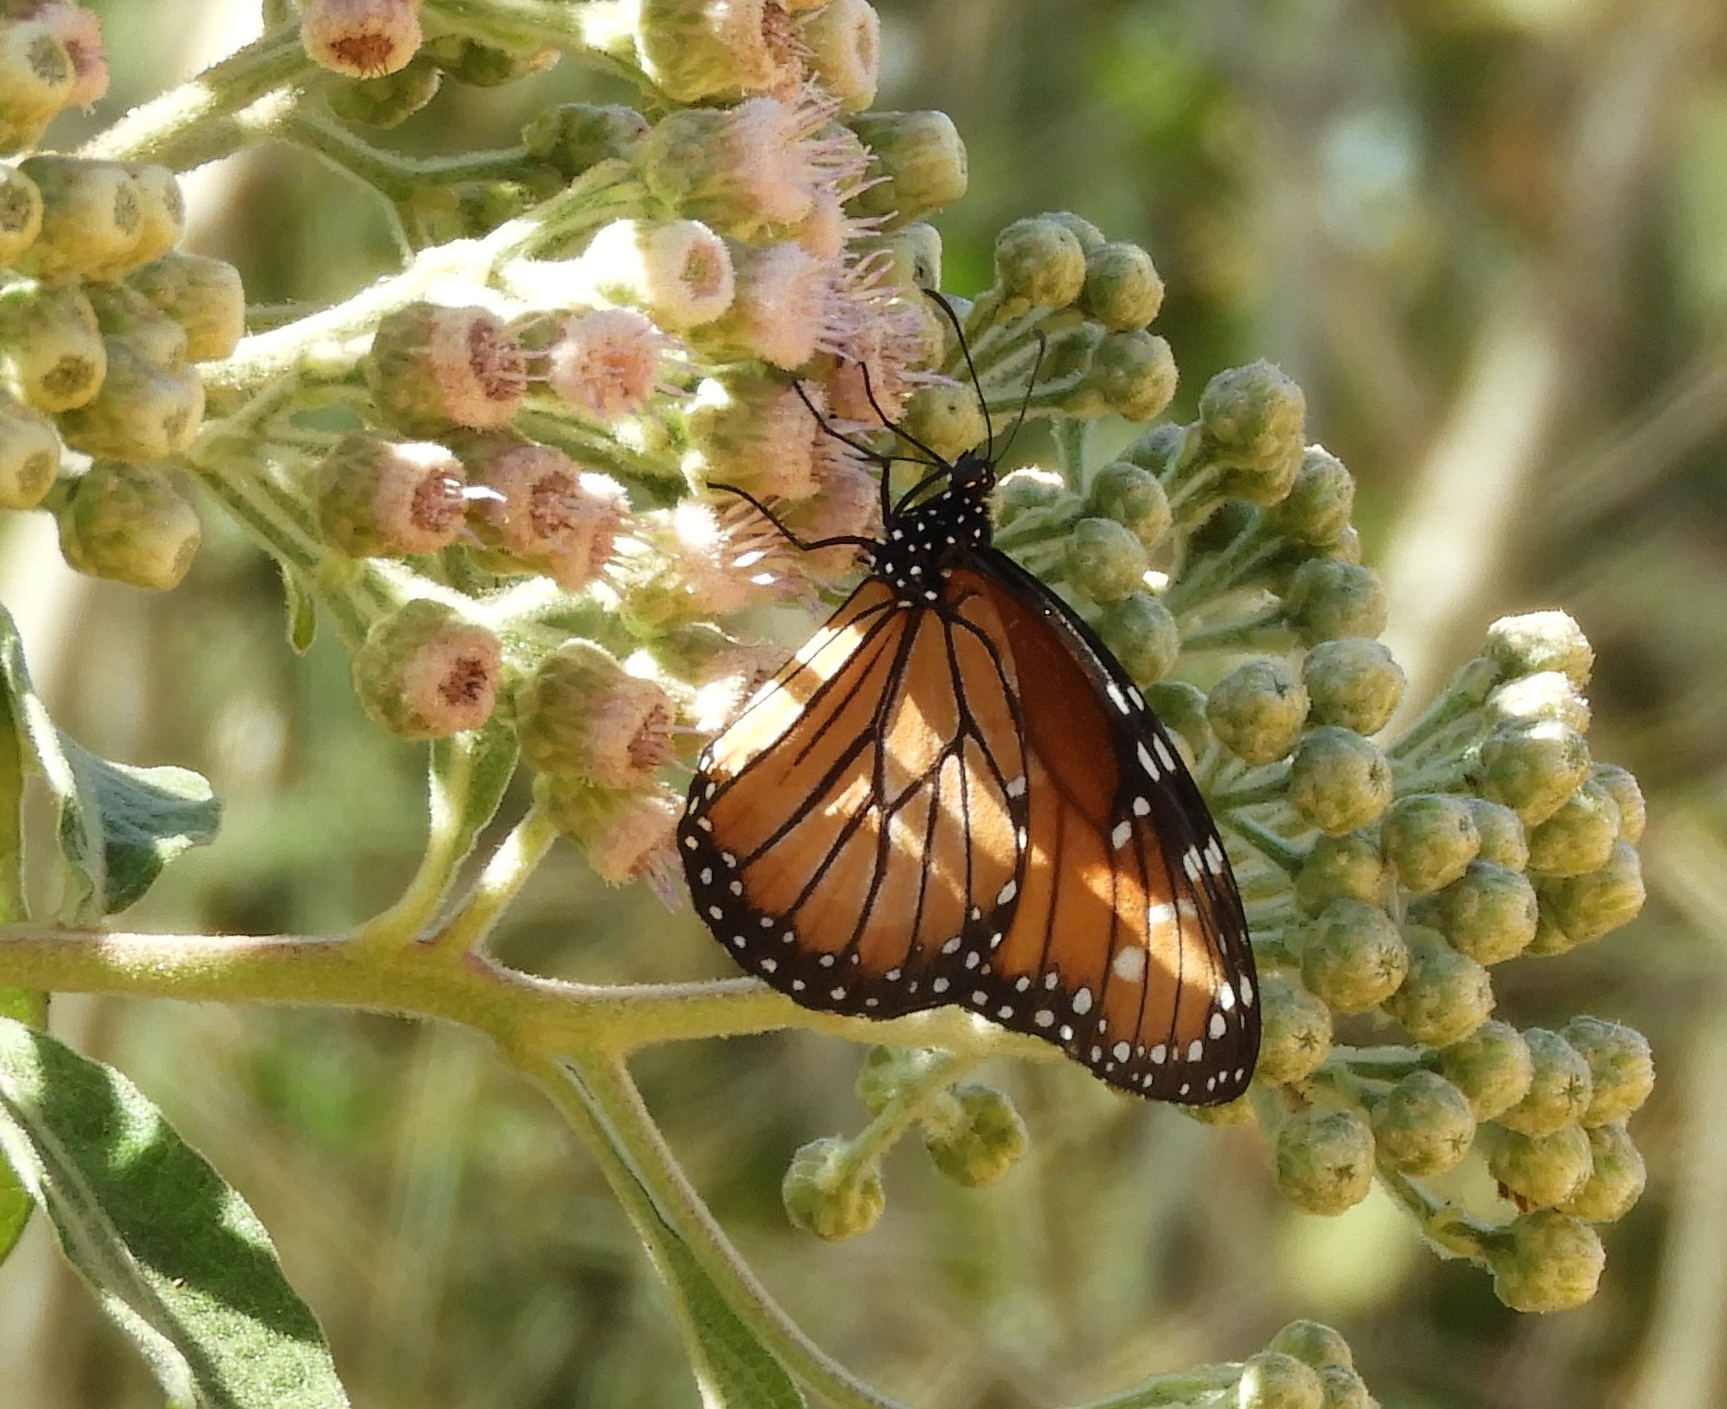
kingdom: Animalia
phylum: Arthropoda
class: Insecta
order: Lepidoptera
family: Nymphalidae
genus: Danaus
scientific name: Danaus eresimus
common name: Soldier
